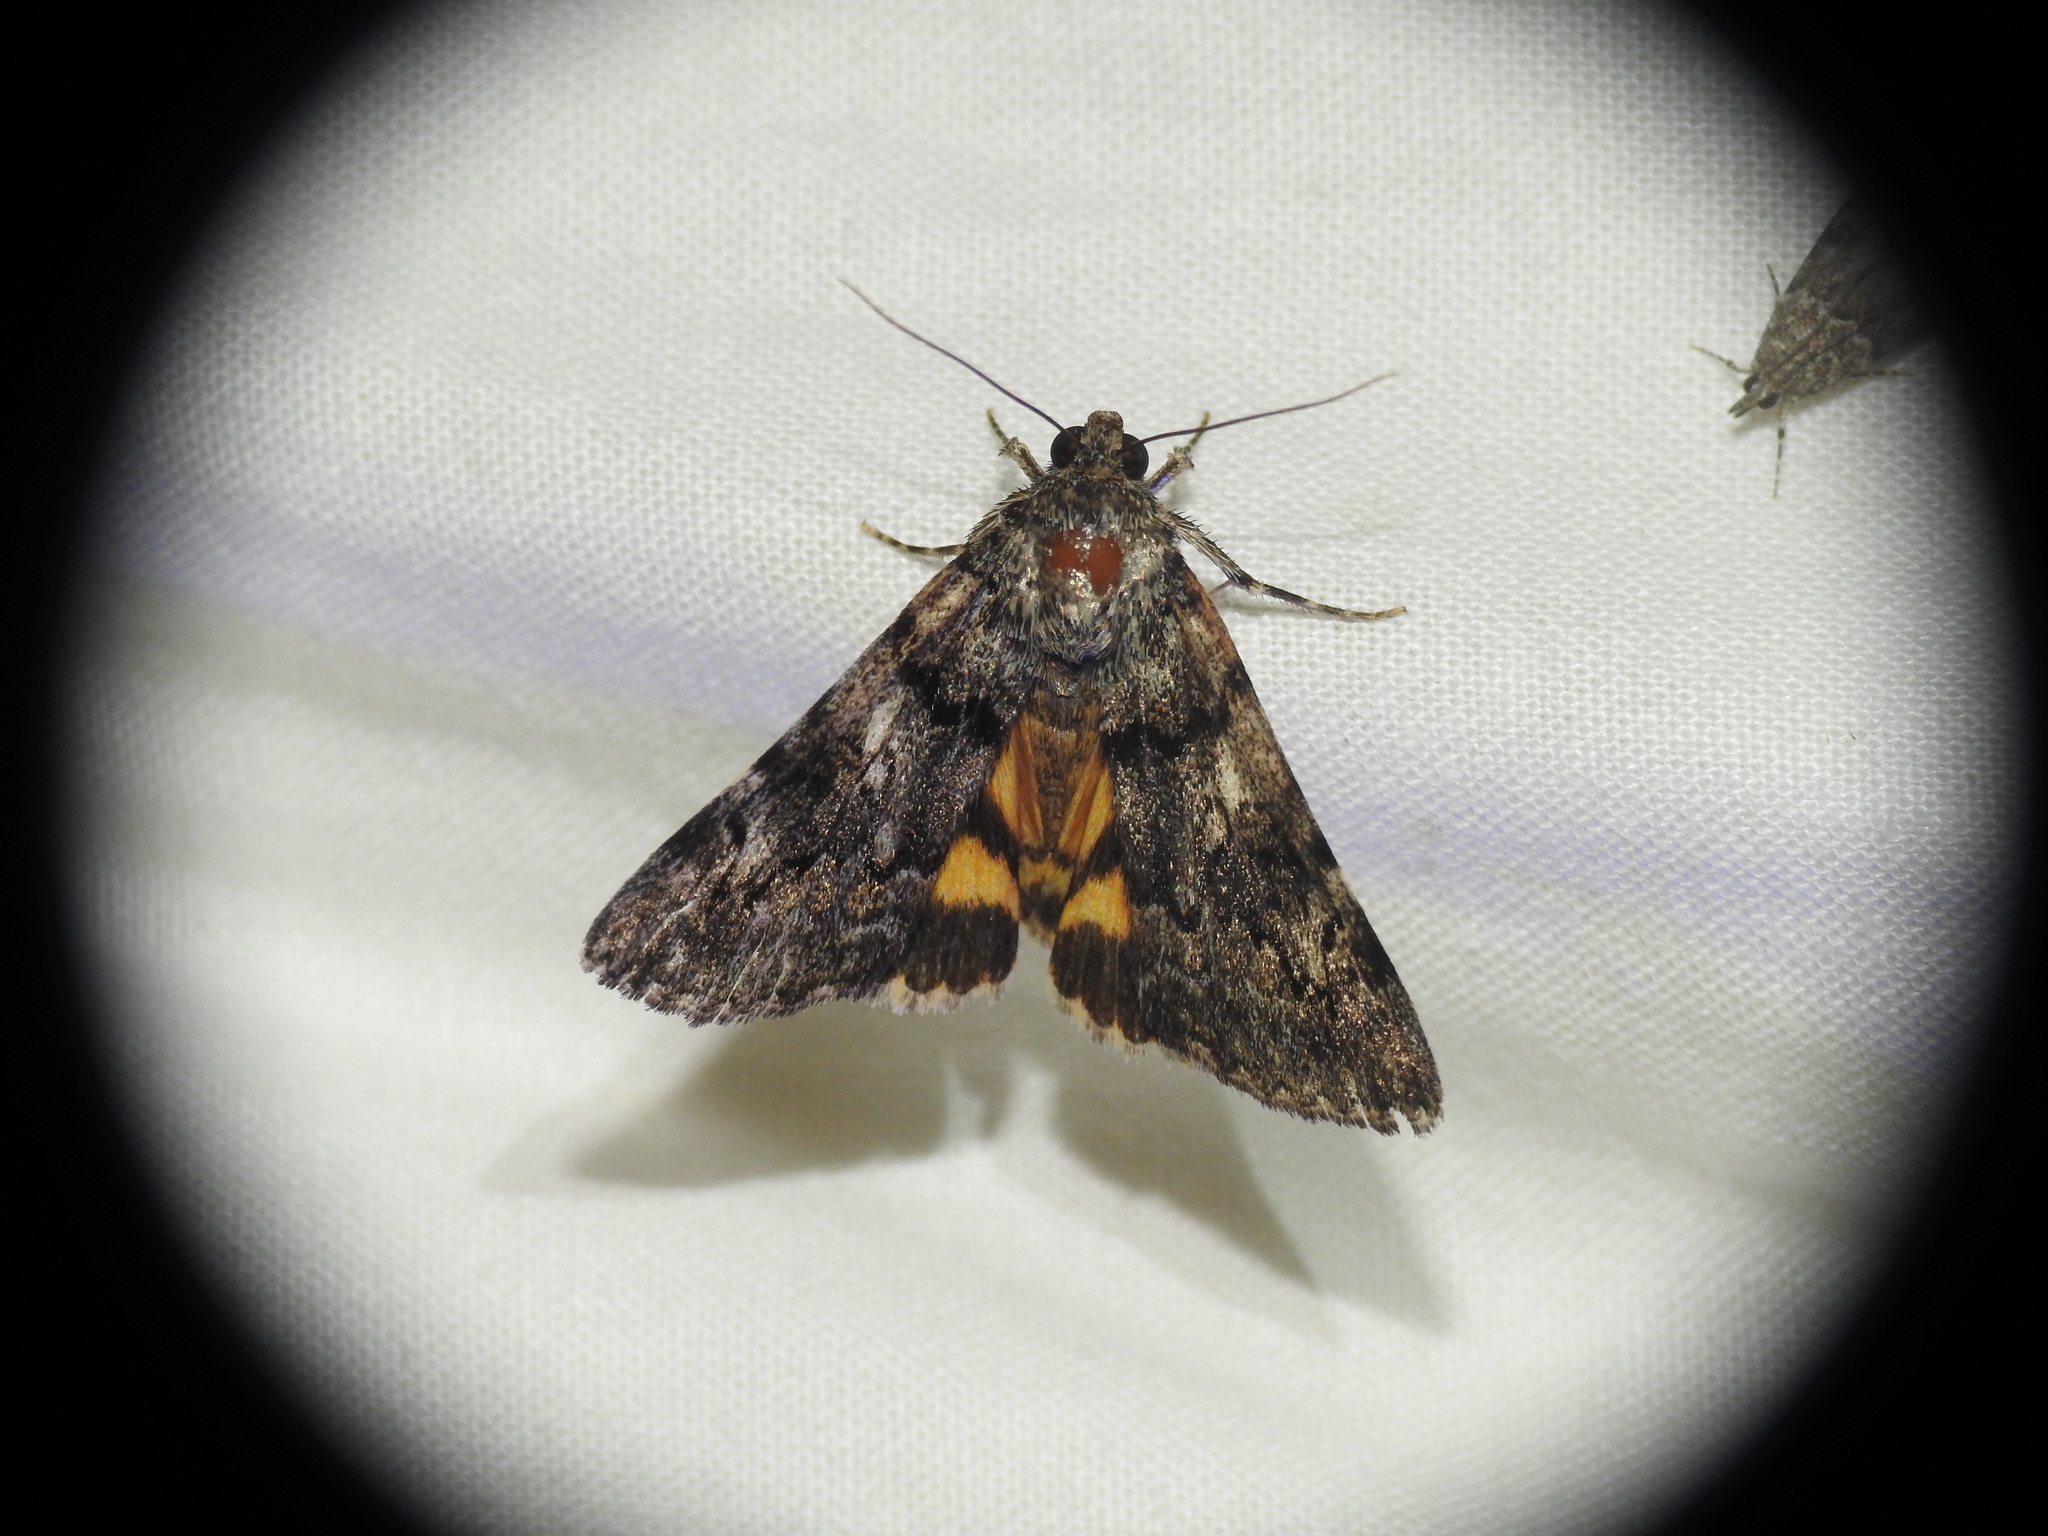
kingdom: Animalia
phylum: Arthropoda
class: Insecta
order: Lepidoptera
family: Erebidae
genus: Catocala
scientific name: Catocala nymphagoga
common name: Oak yellow underwing
